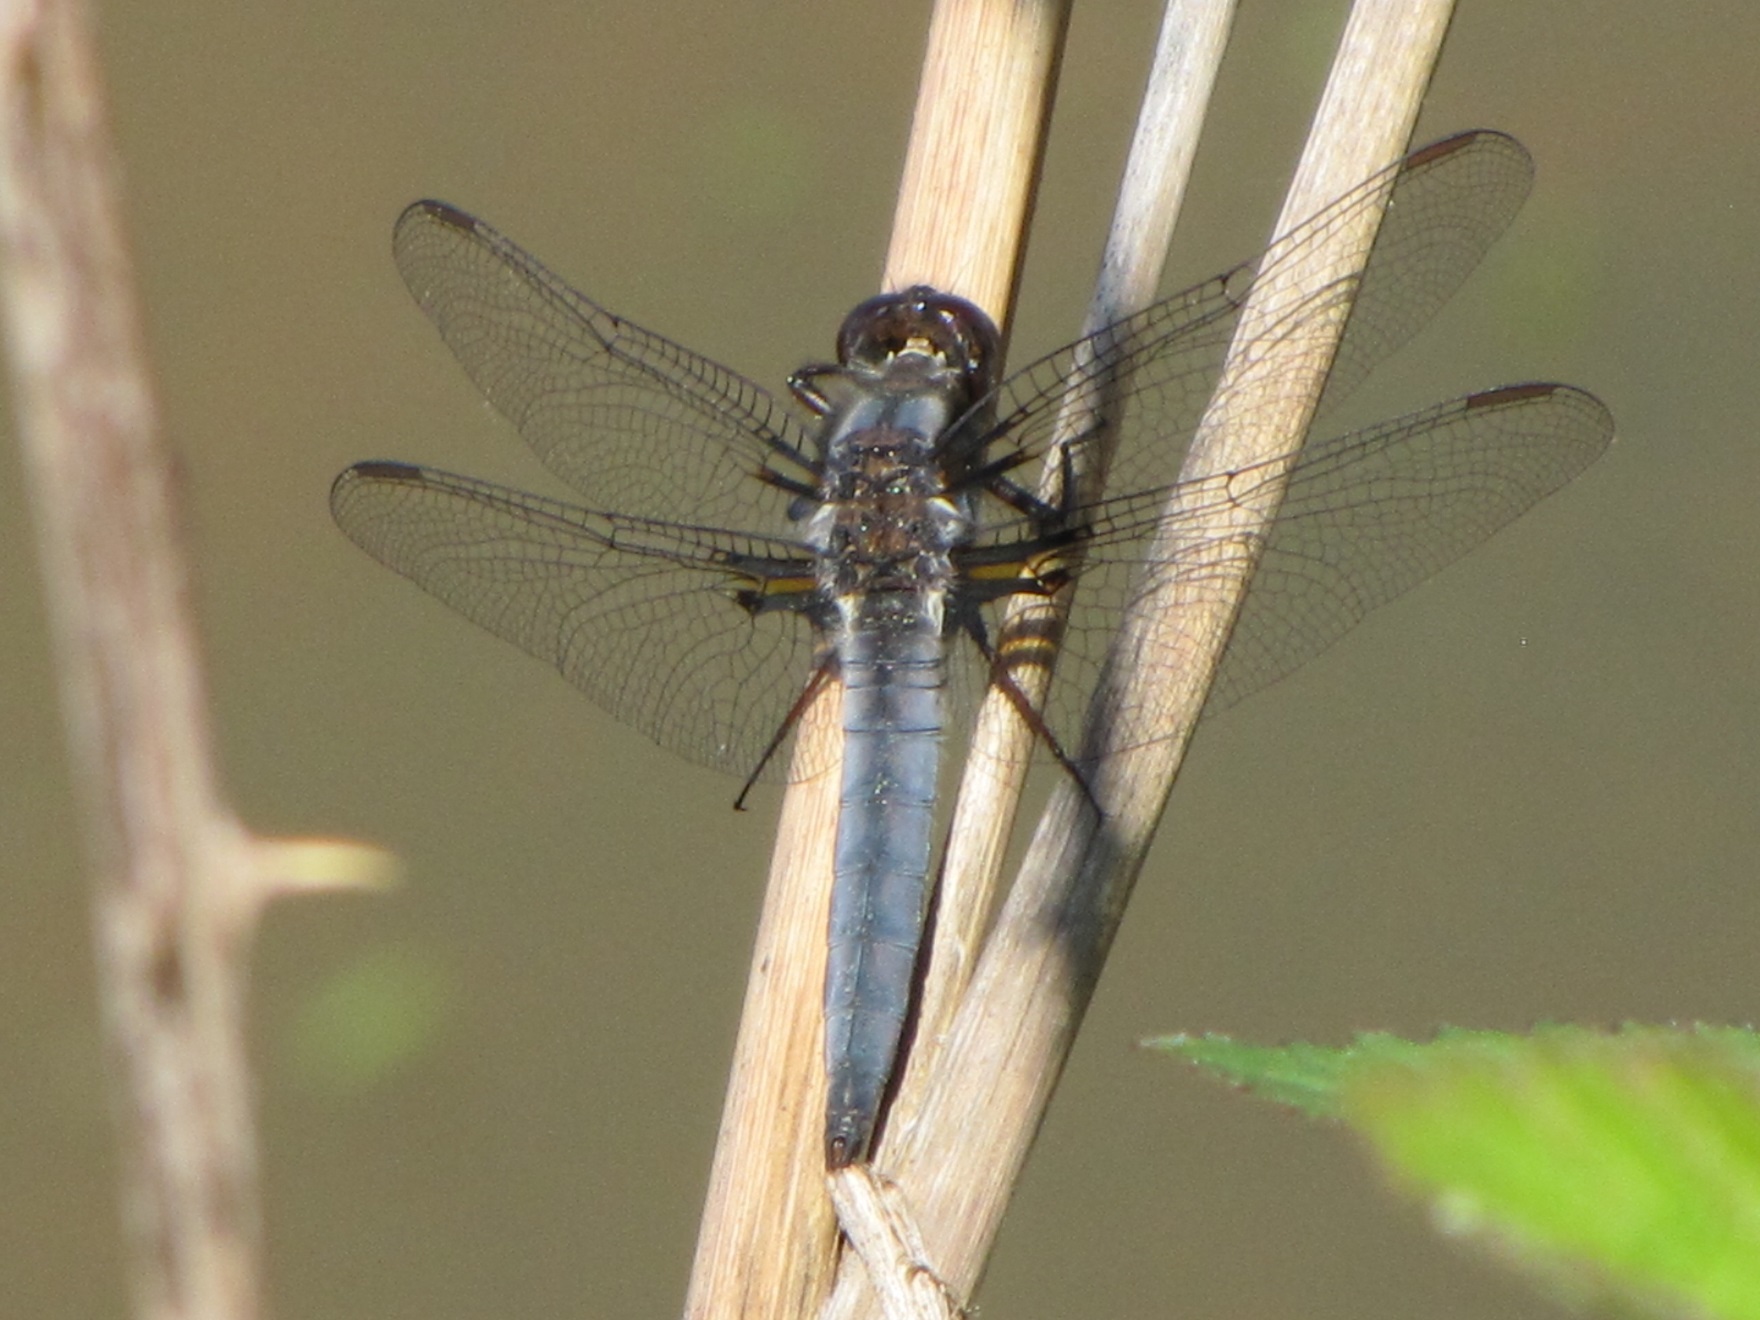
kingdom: Animalia
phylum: Arthropoda
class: Insecta
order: Odonata
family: Libellulidae
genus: Ladona
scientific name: Ladona deplanata
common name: Blue corporal
